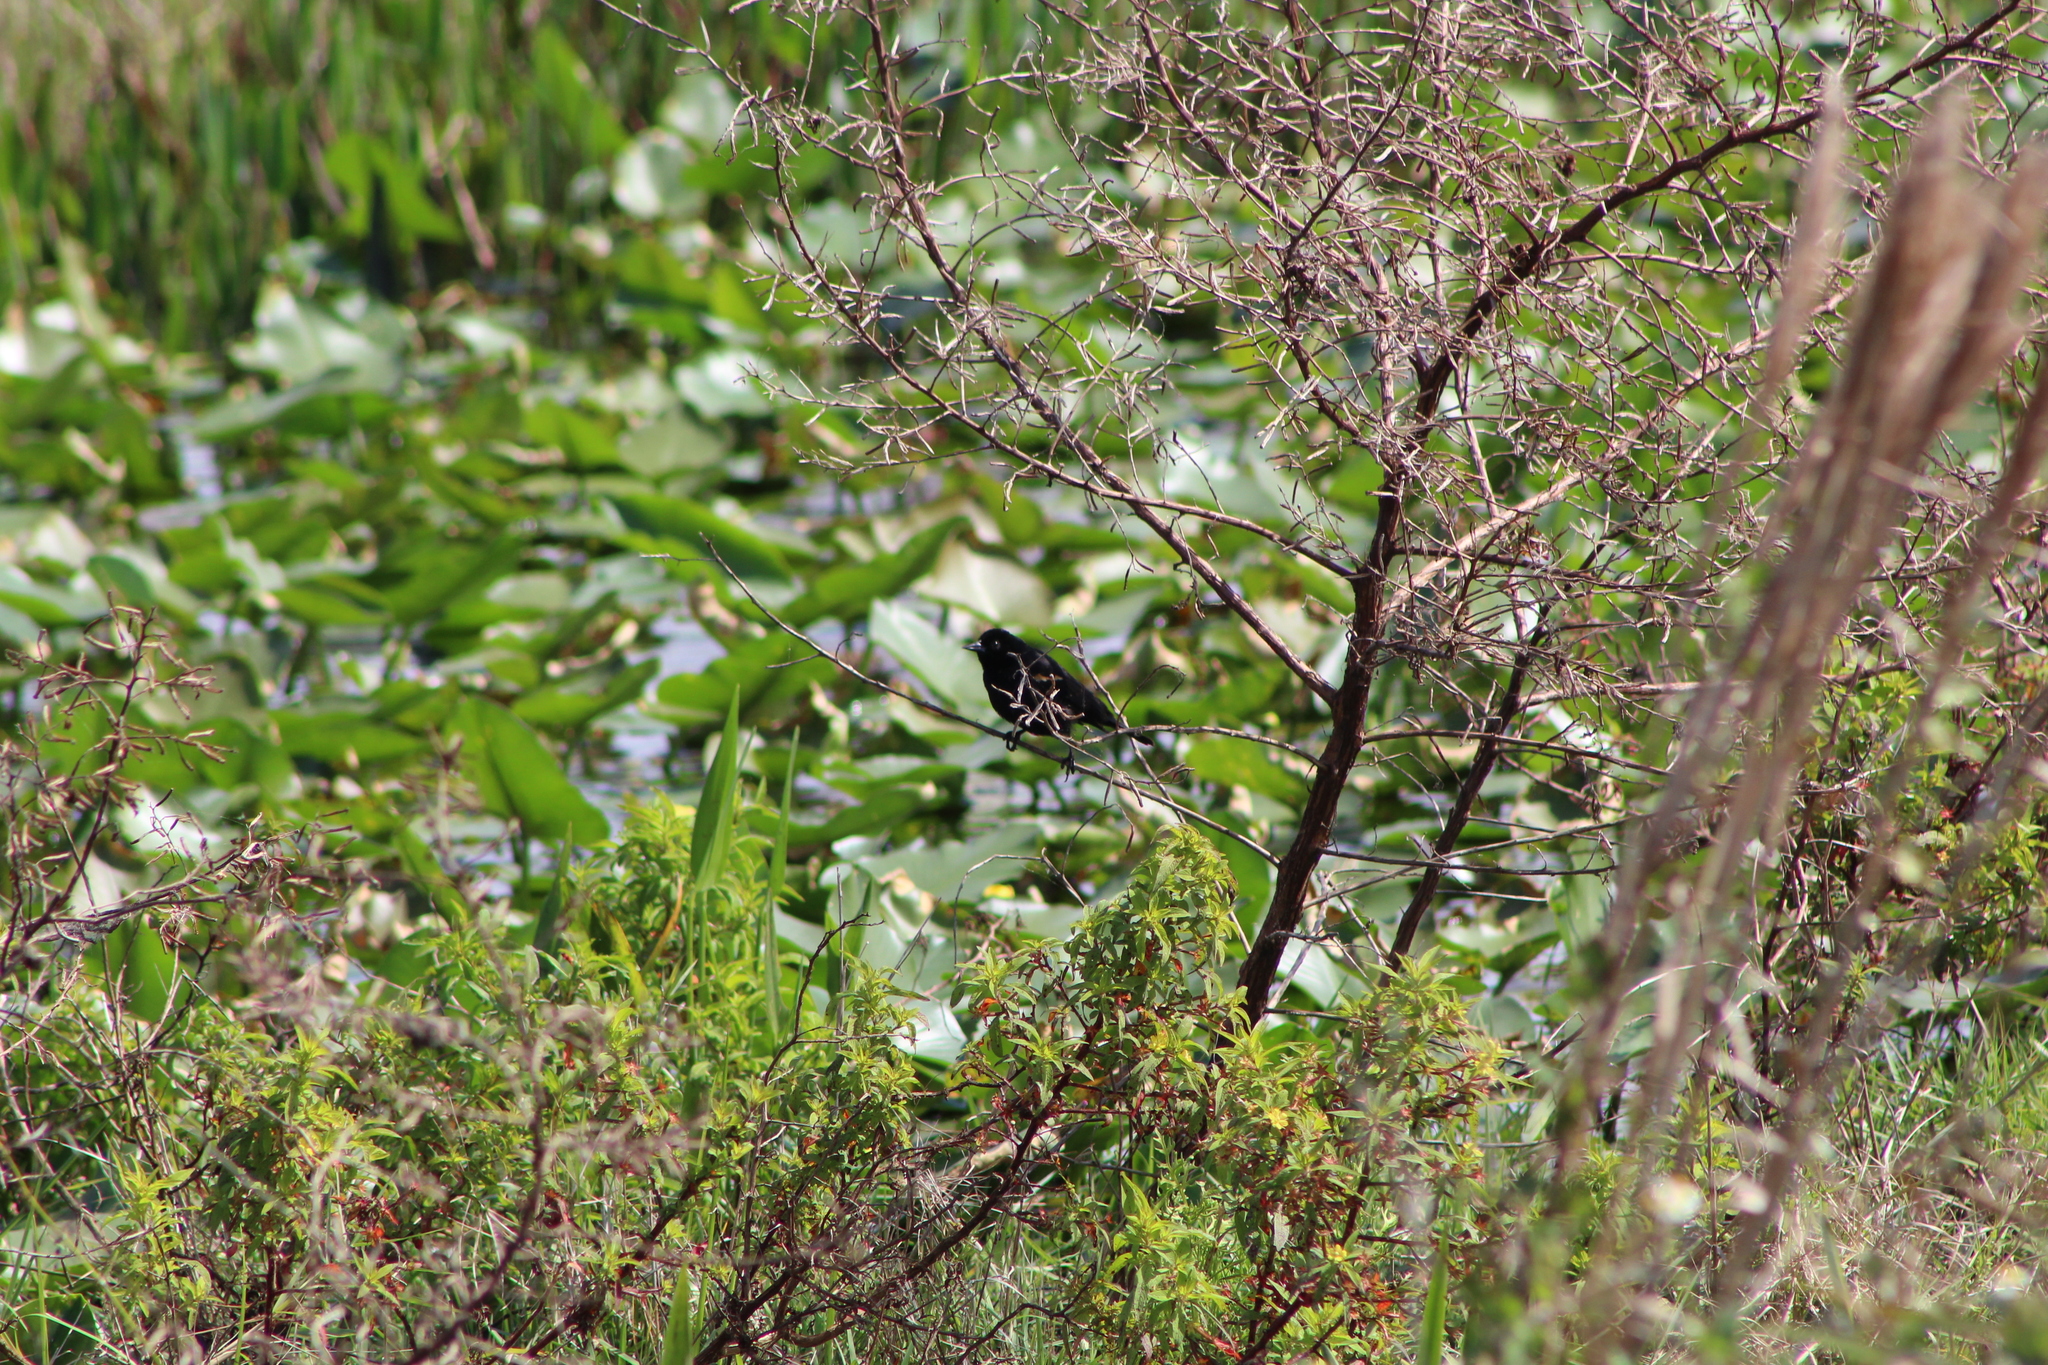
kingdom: Animalia
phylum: Chordata
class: Aves
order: Passeriformes
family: Icteridae
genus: Agelaius
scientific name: Agelaius phoeniceus
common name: Red-winged blackbird
